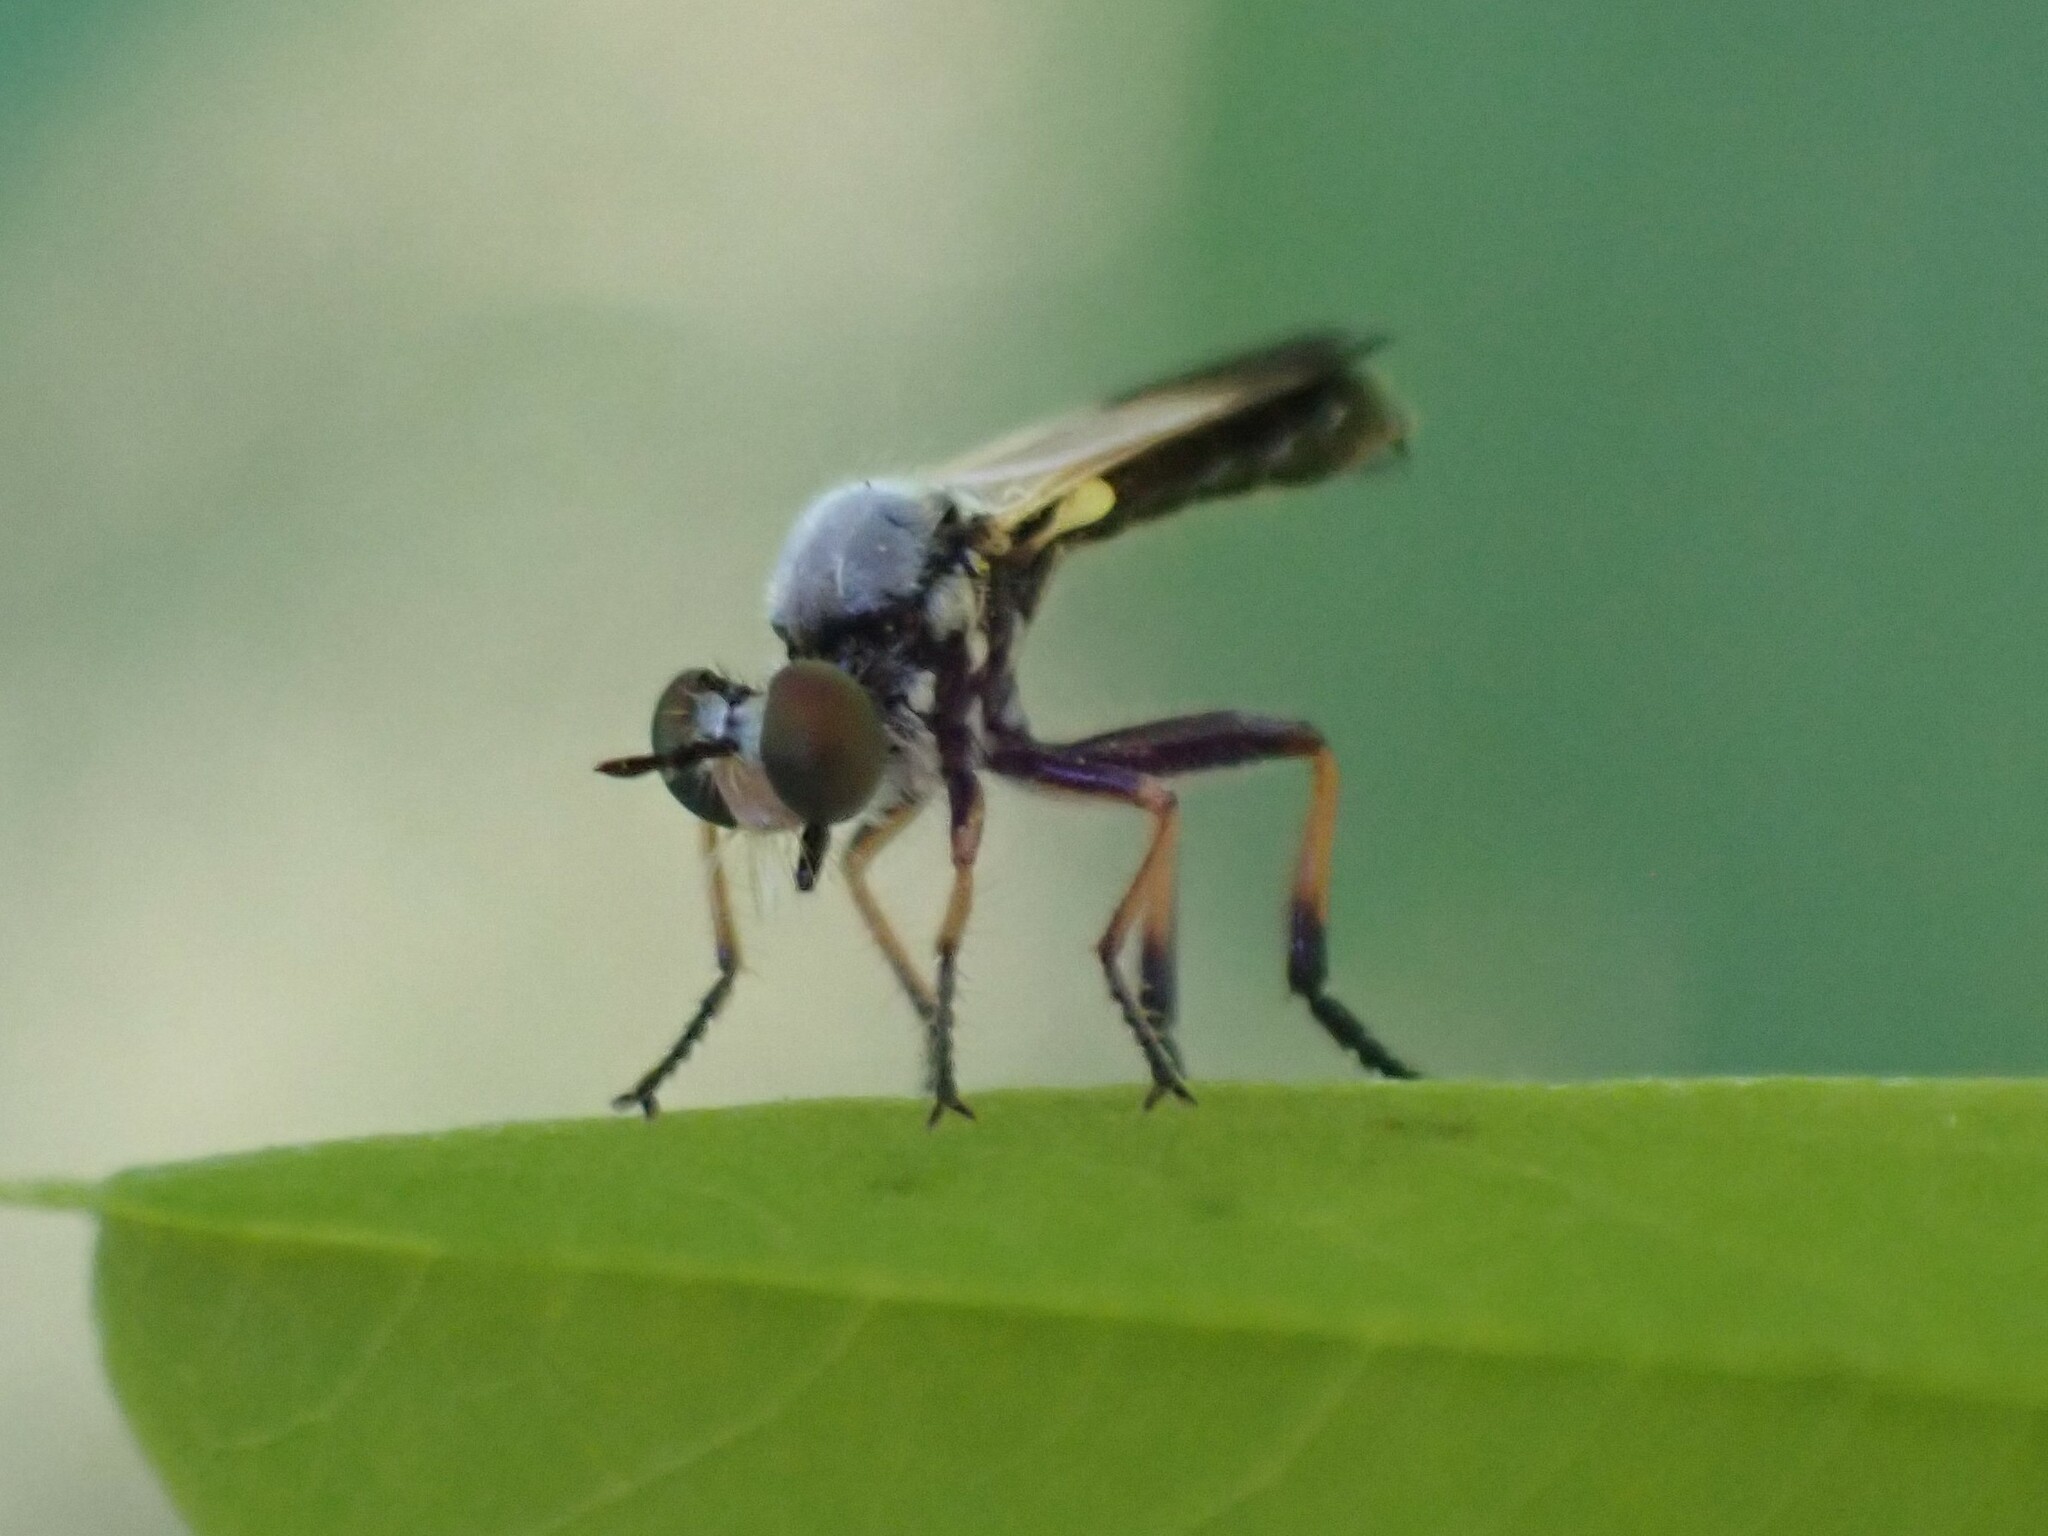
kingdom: Animalia
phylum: Arthropoda
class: Insecta
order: Diptera
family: Asilidae
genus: Eudioctria
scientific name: Eudioctria sackeni
